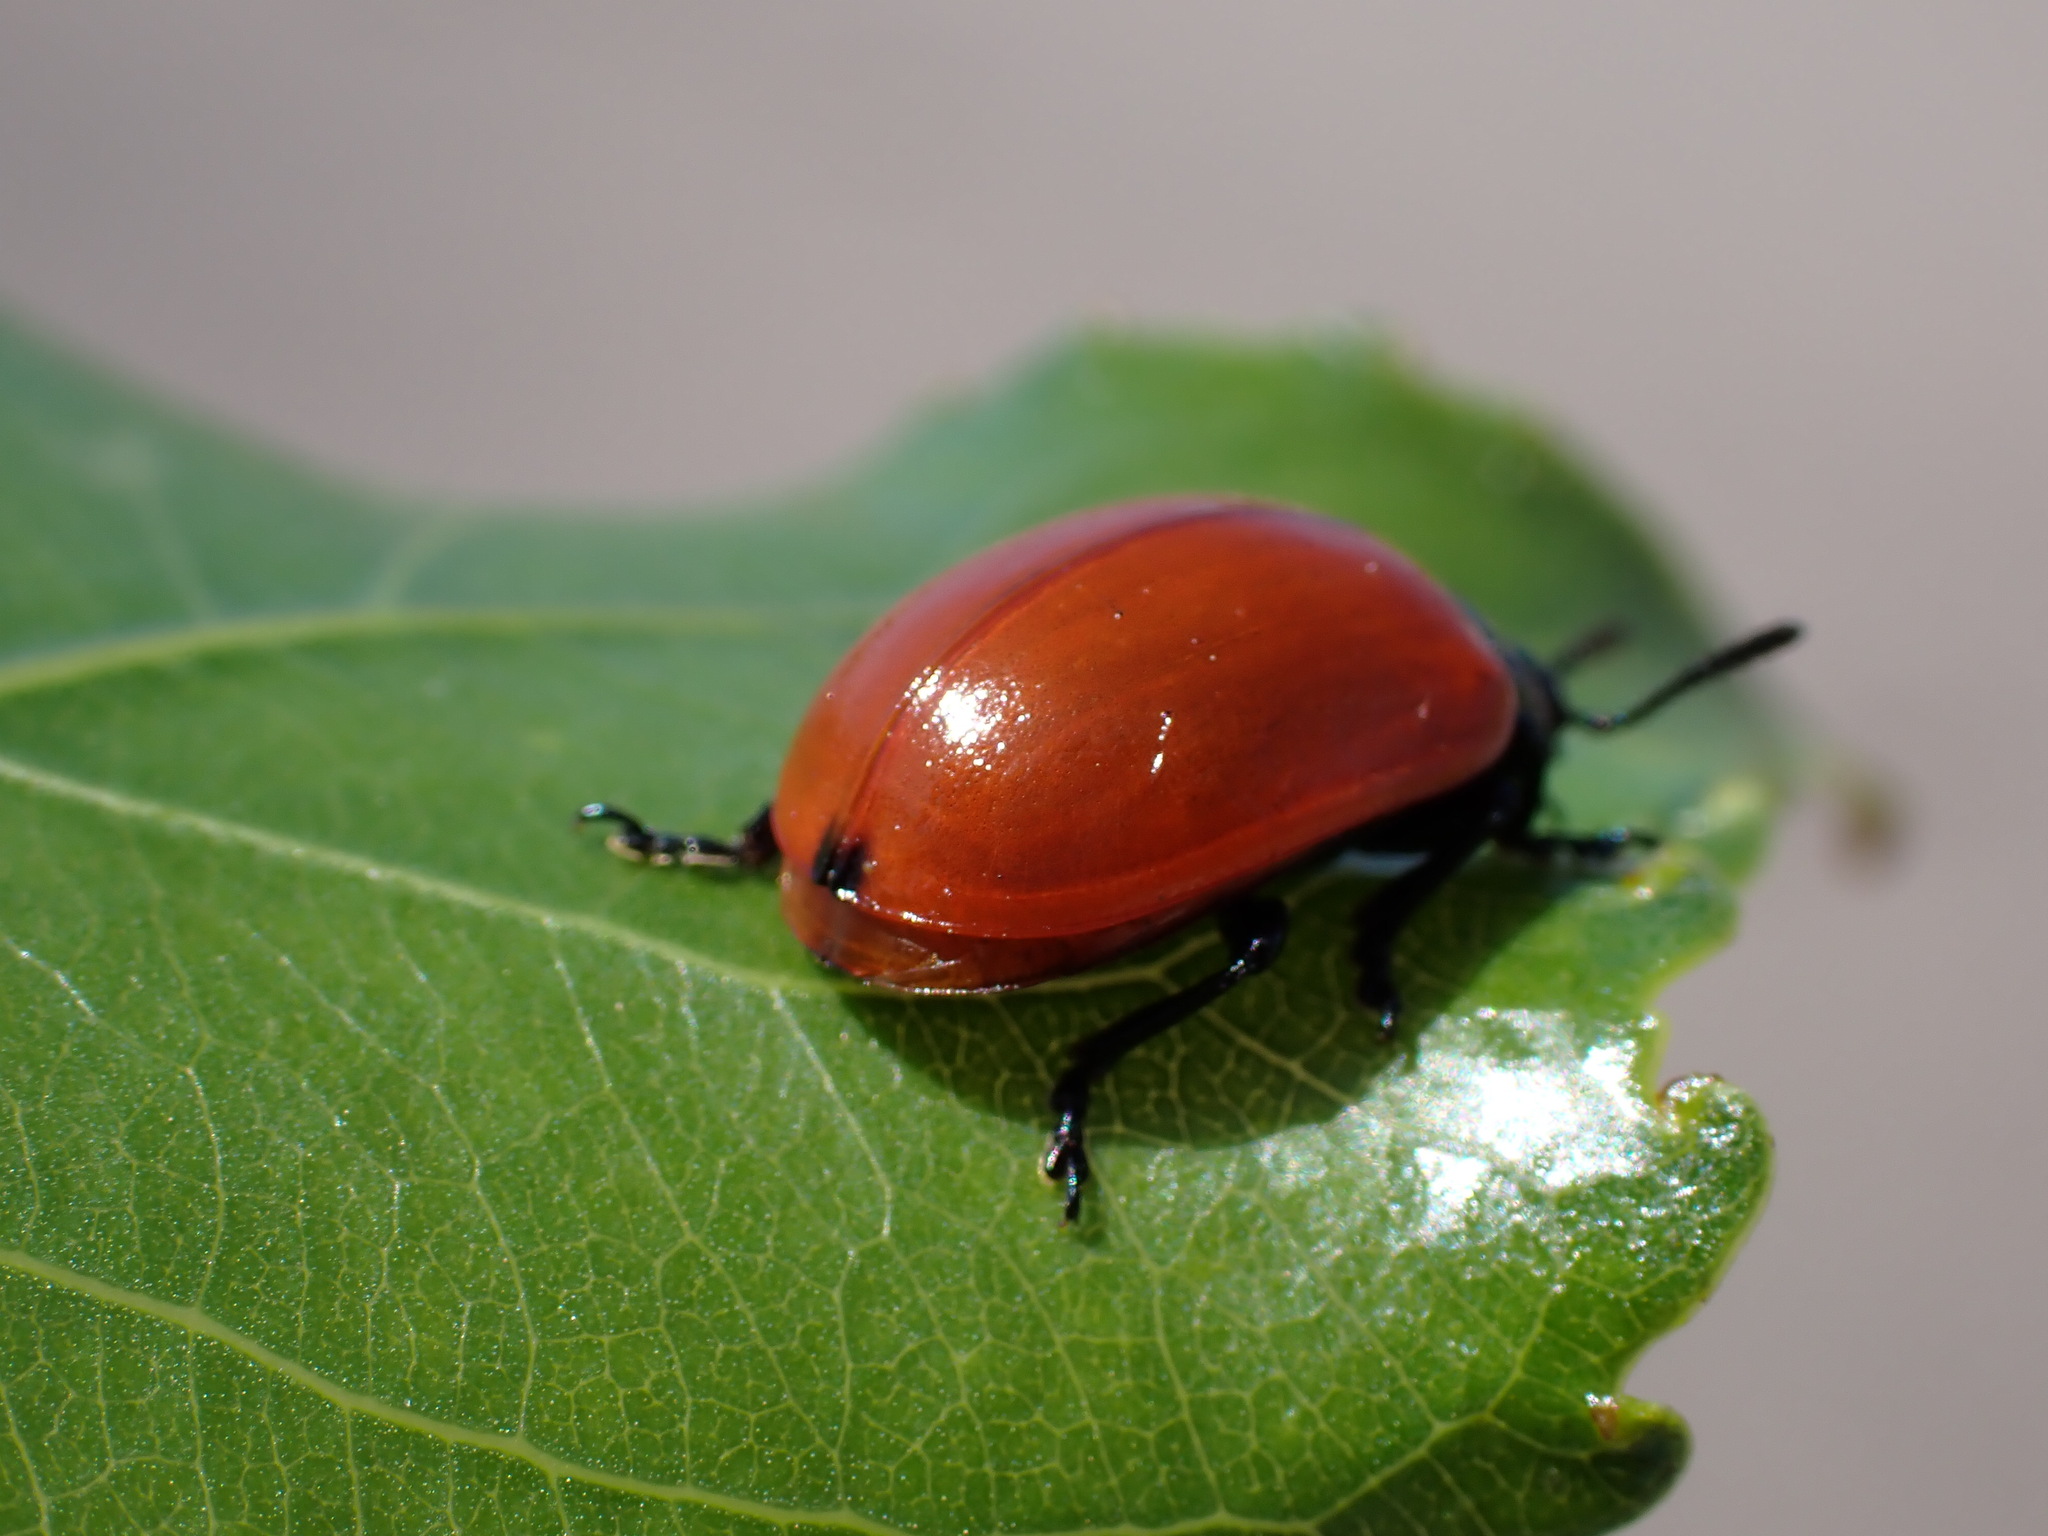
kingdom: Animalia
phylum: Arthropoda
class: Insecta
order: Coleoptera
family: Chrysomelidae
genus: Chrysomela
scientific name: Chrysomela populi
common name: Red poplar leaf beetle
